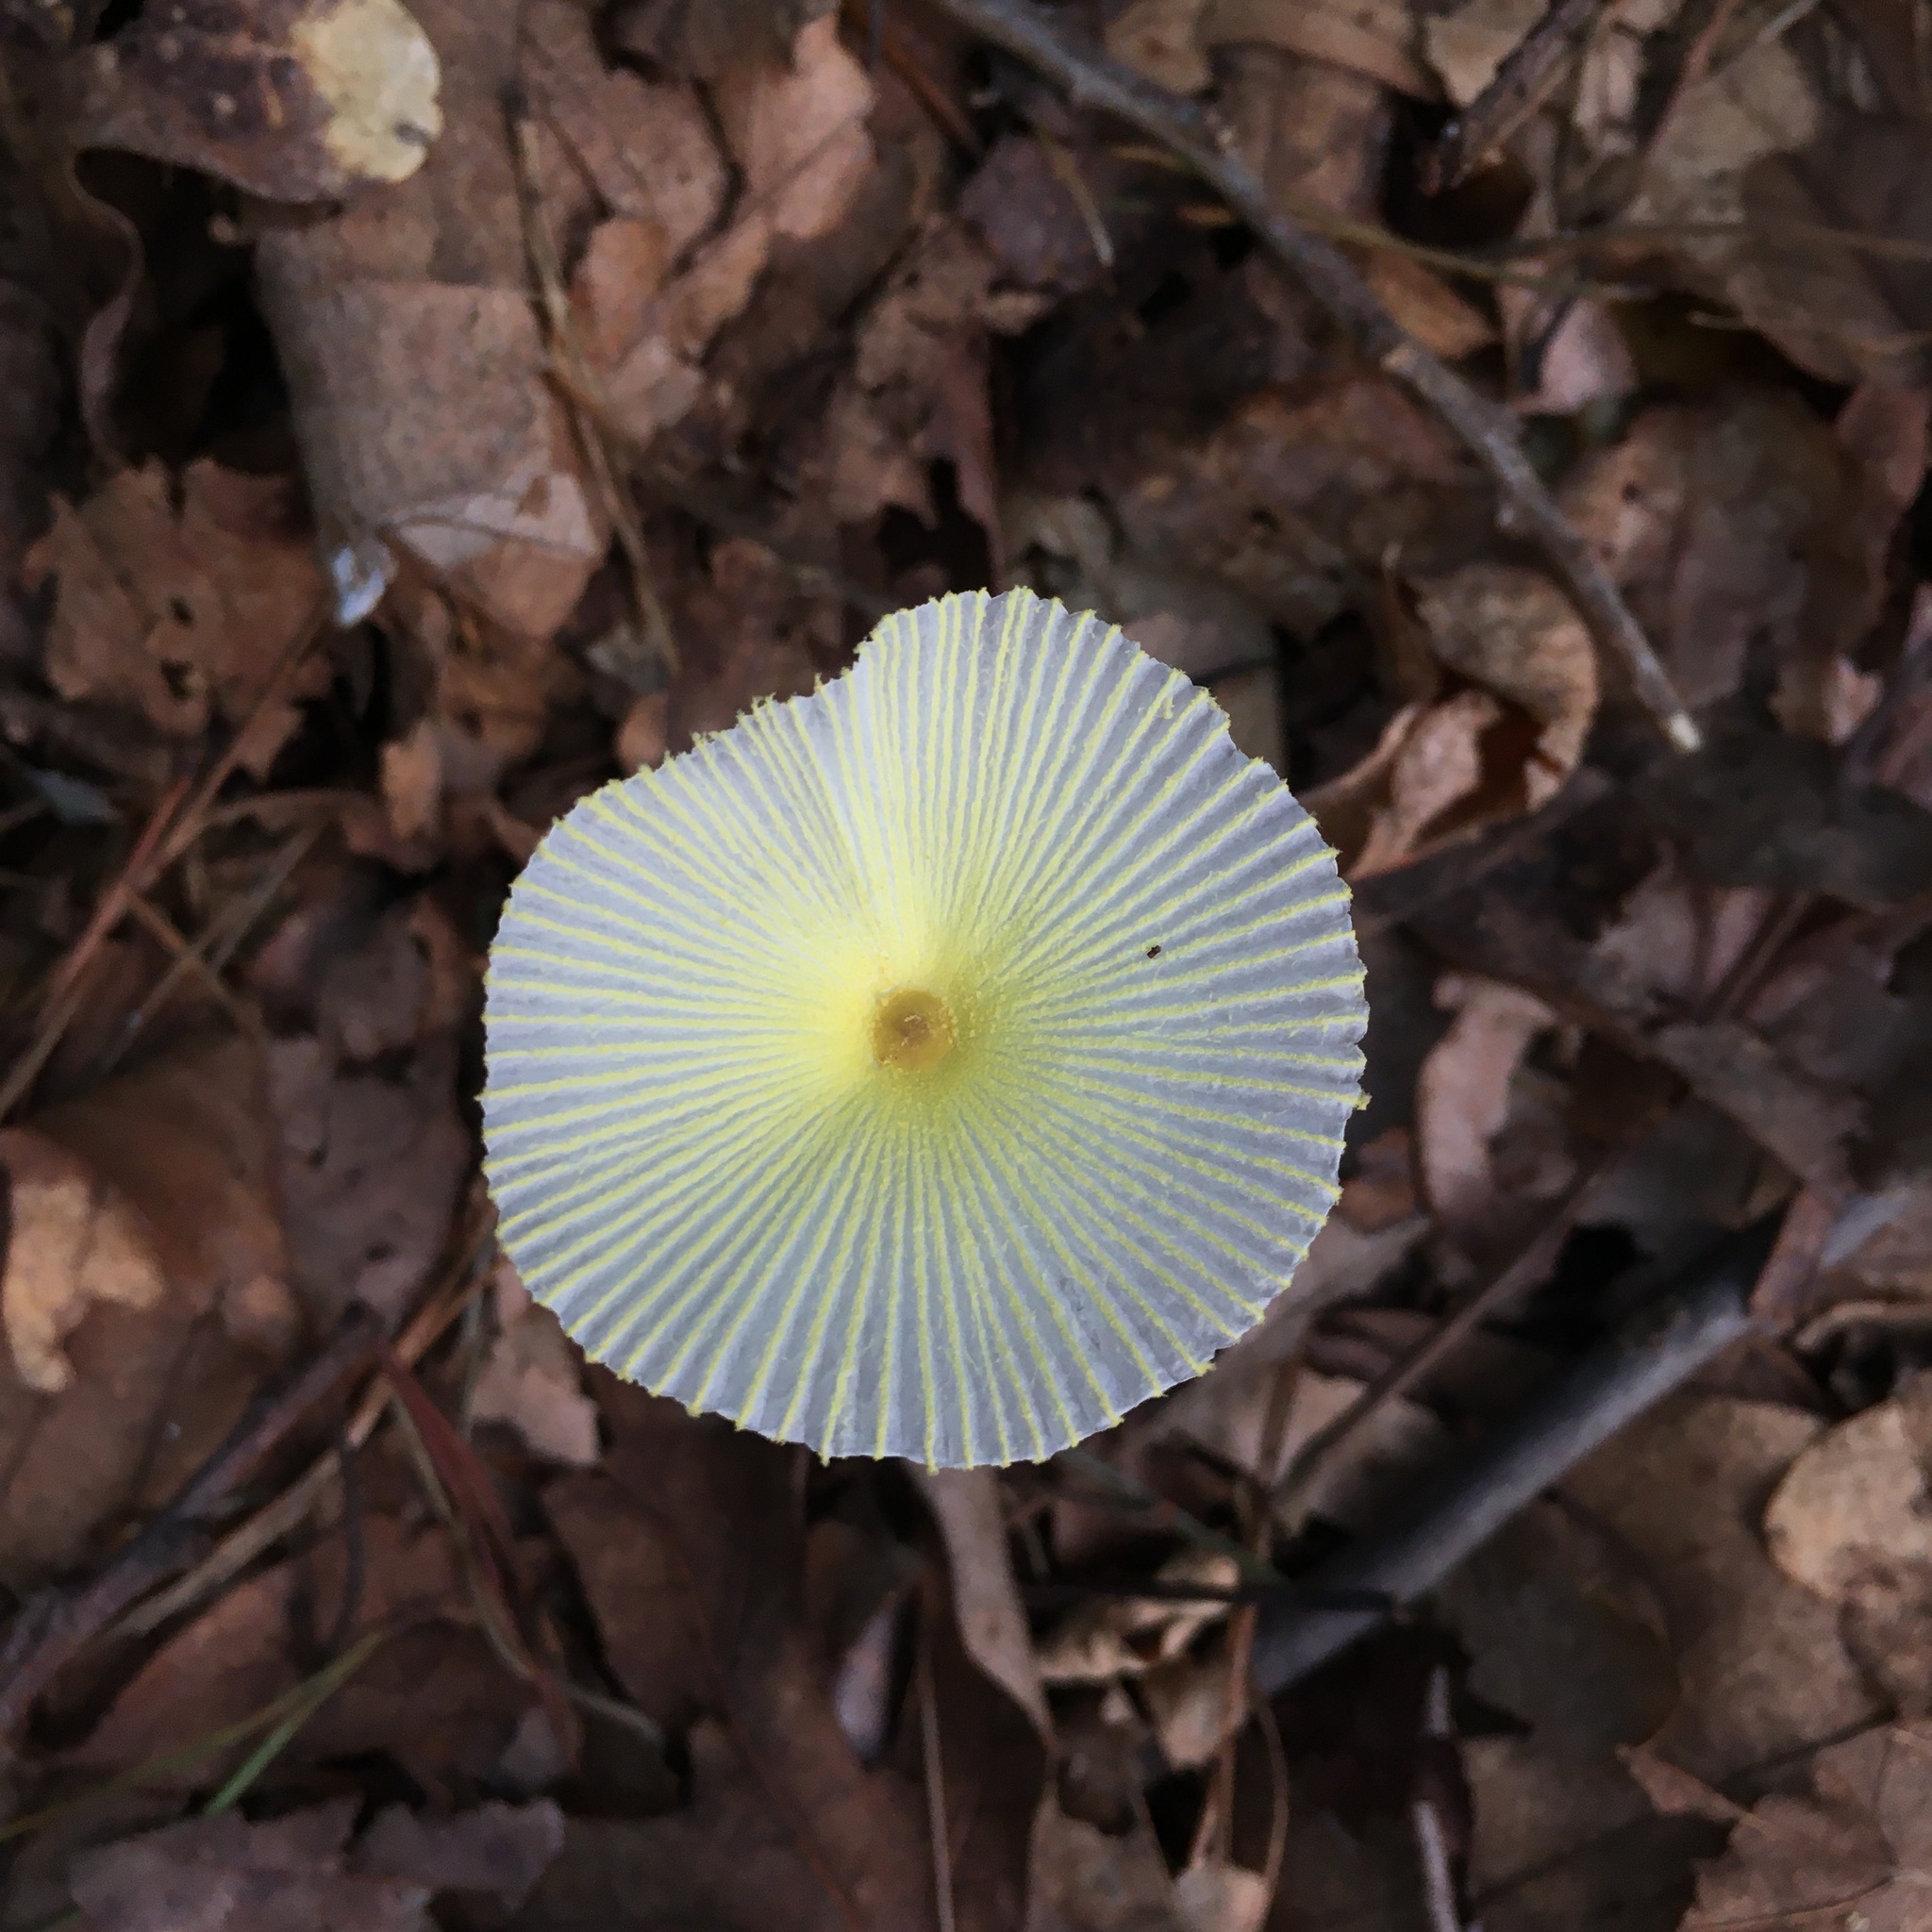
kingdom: Fungi
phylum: Basidiomycota
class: Agaricomycetes
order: Agaricales
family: Agaricaceae
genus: Leucocoprinus
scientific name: Leucocoprinus fragilissimus
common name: Fragile dapperling
